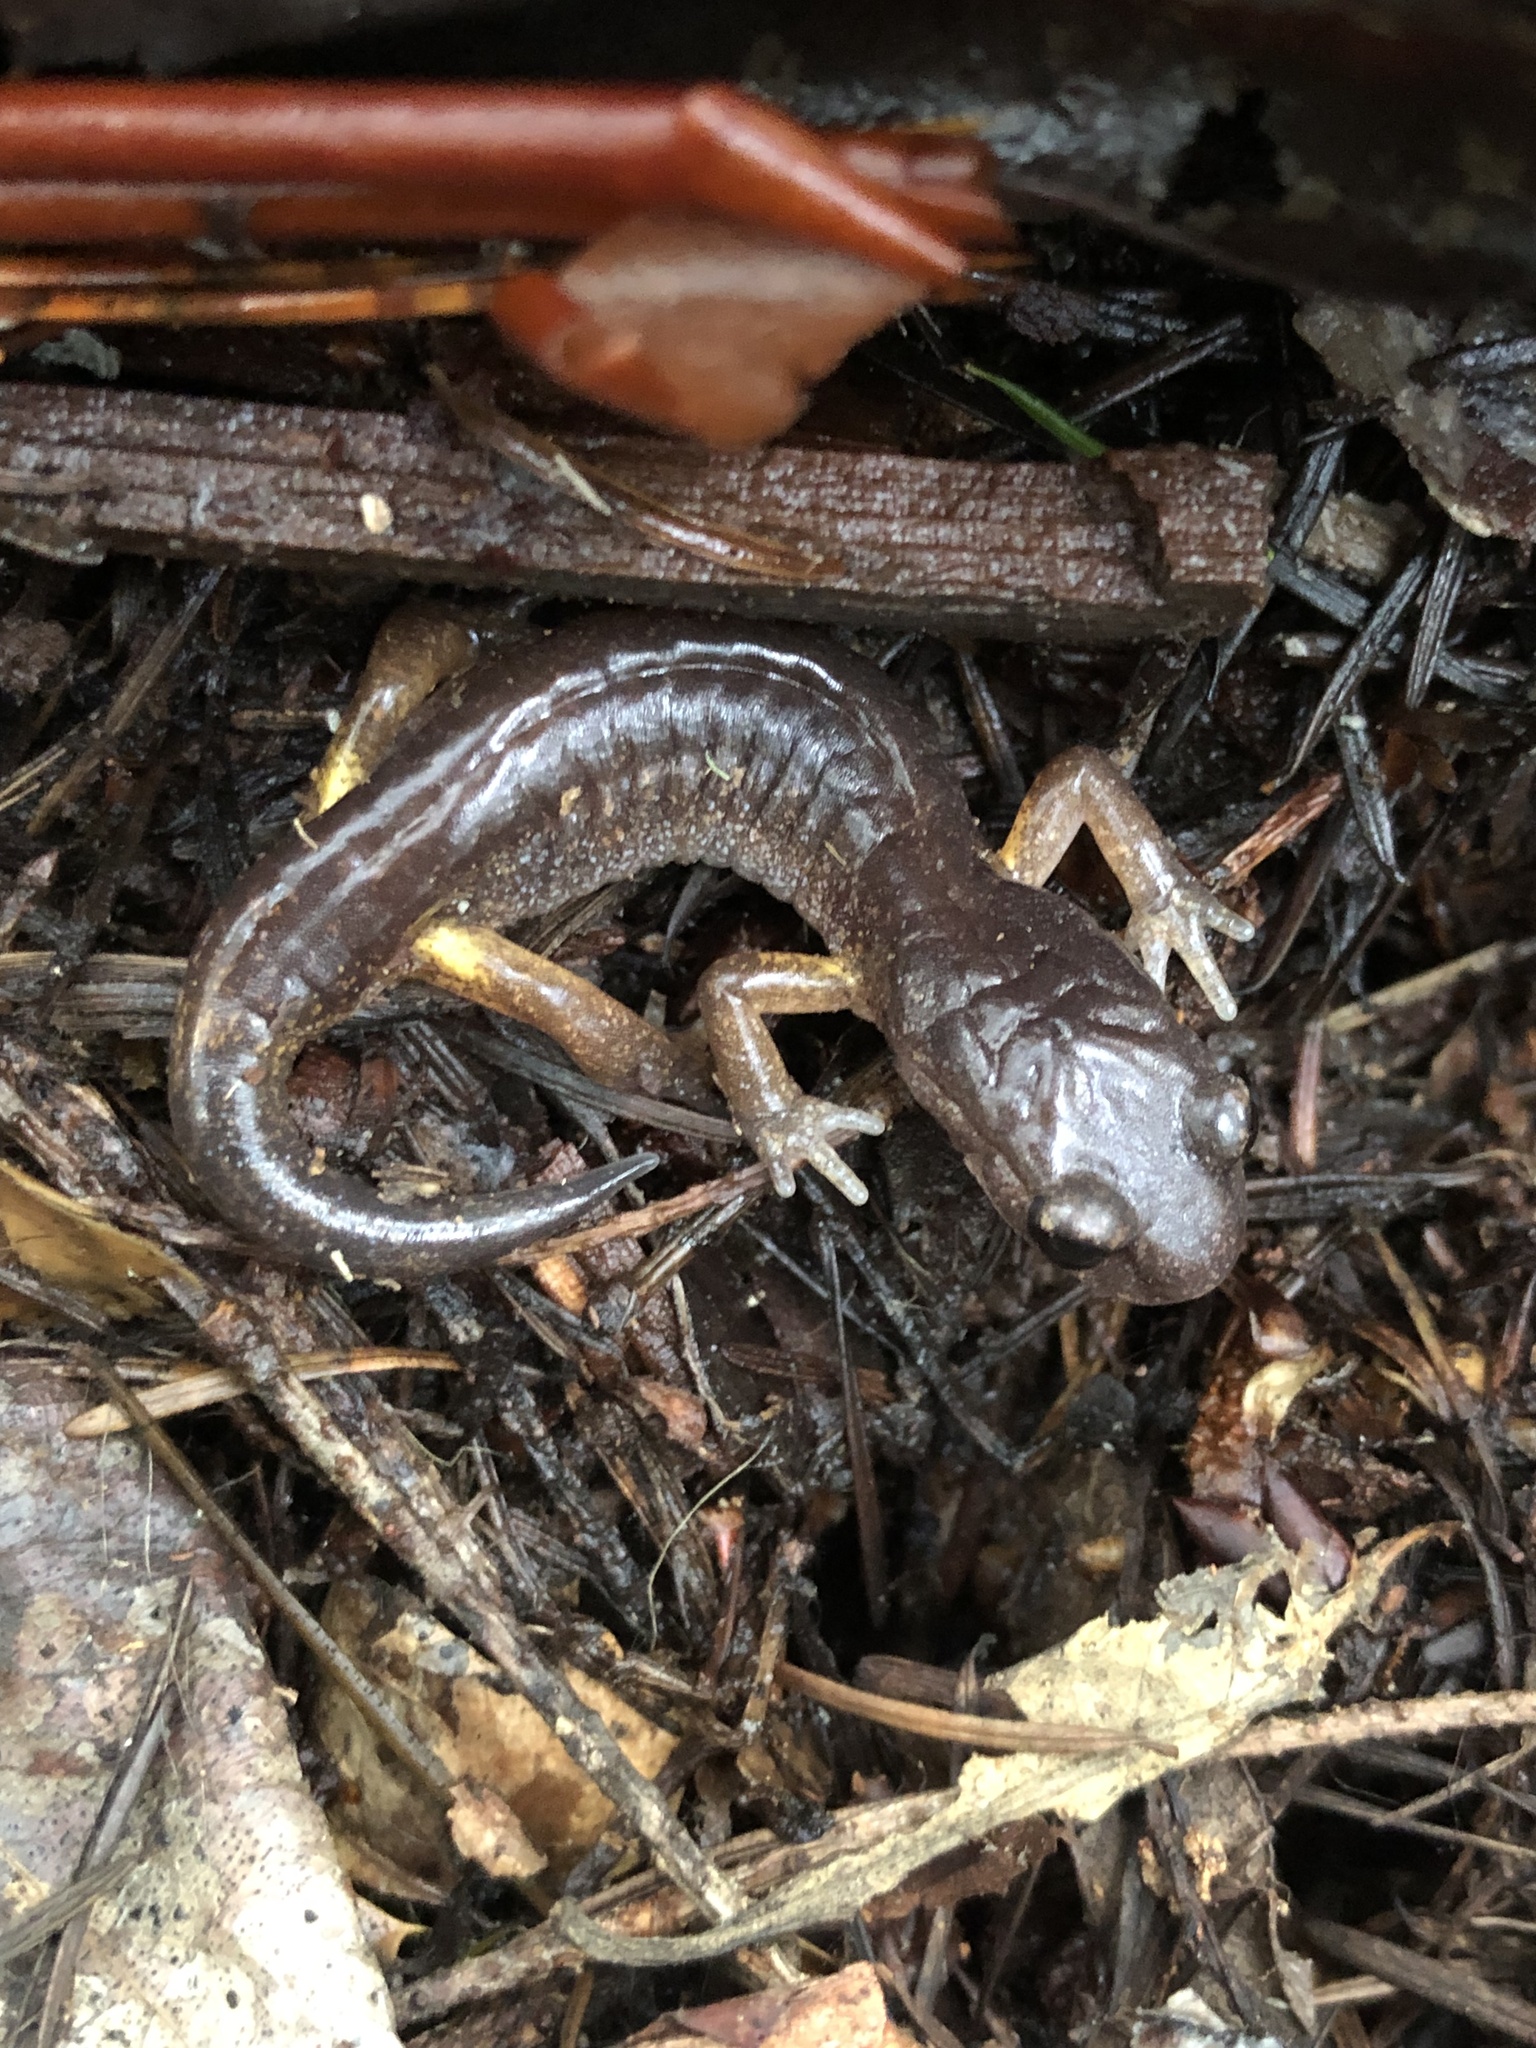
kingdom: Animalia
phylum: Chordata
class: Amphibia
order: Caudata
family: Plethodontidae
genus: Ensatina
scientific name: Ensatina eschscholtzii
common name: Ensatina
